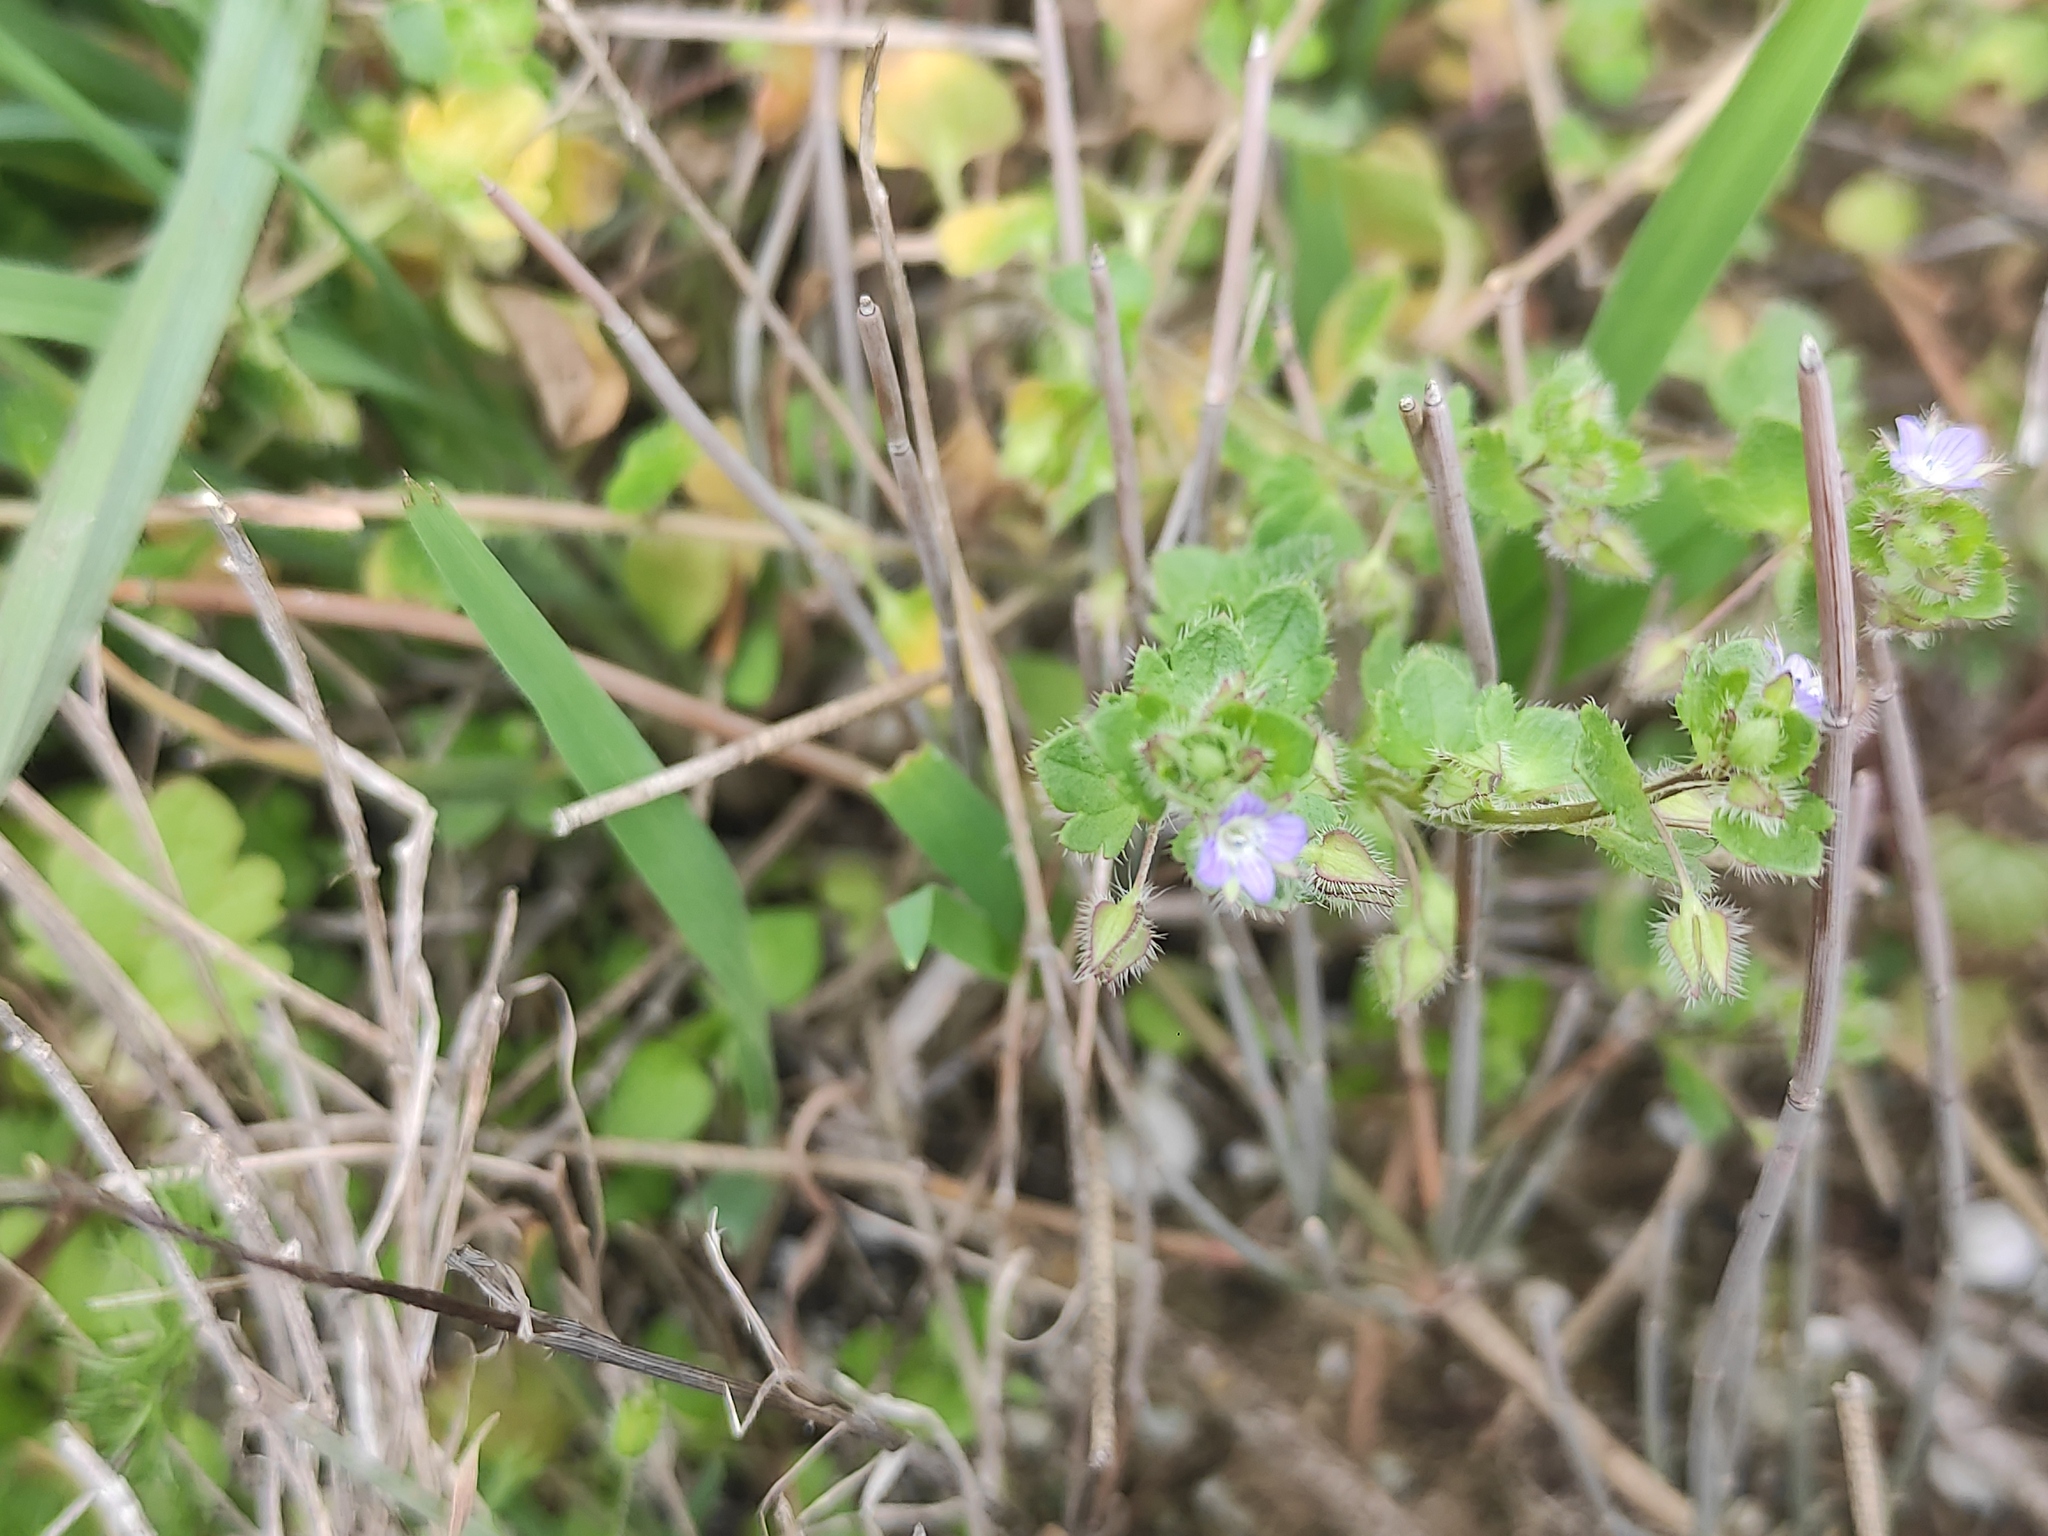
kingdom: Plantae
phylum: Tracheophyta
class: Magnoliopsida
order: Lamiales
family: Plantaginaceae
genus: Veronica
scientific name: Veronica hederifolia
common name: Ivy-leaved speedwell
